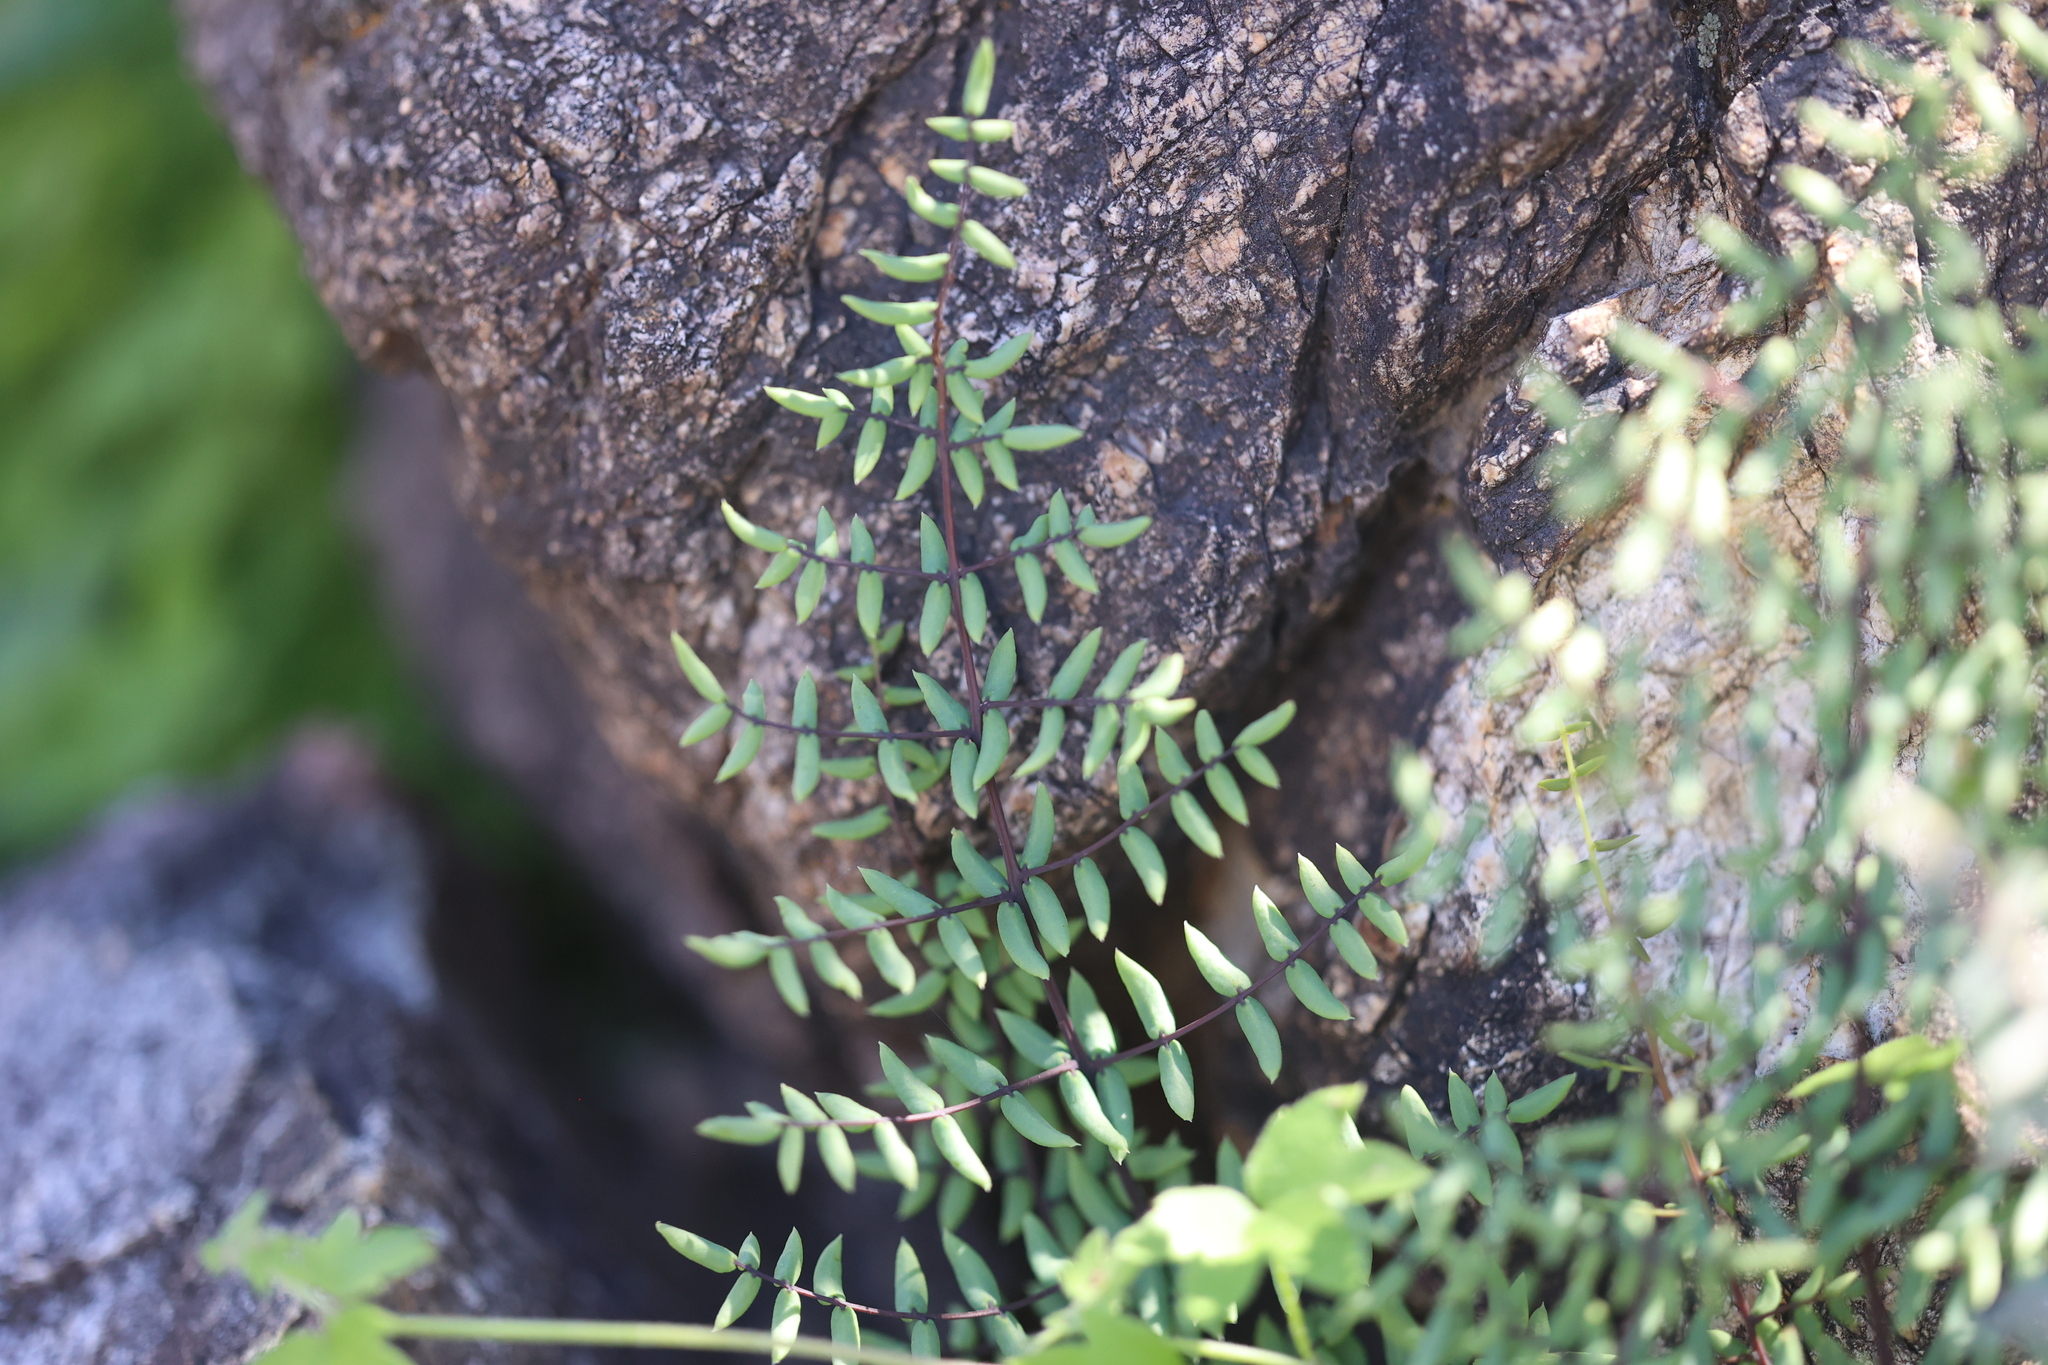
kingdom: Plantae
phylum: Tracheophyta
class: Polypodiopsida
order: Polypodiales
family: Pteridaceae
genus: Pellaea
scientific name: Pellaea truncata
